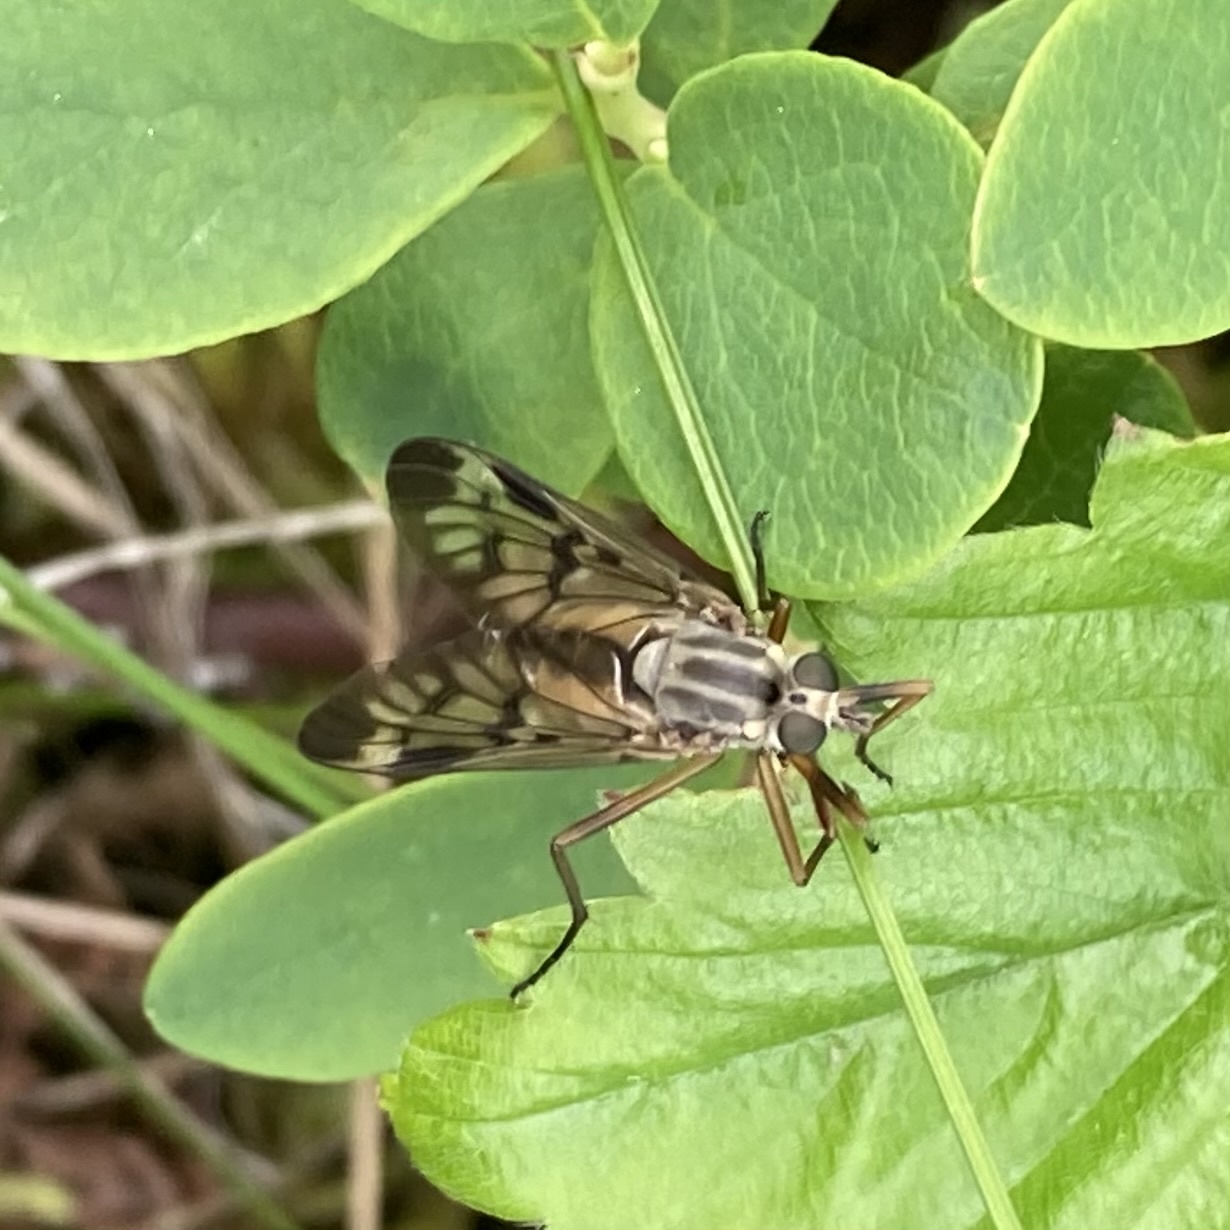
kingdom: Animalia
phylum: Arthropoda
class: Insecta
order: Diptera
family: Rhagionidae
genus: Rhagio
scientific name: Rhagio scolopacea
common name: Downlooker snipefly
